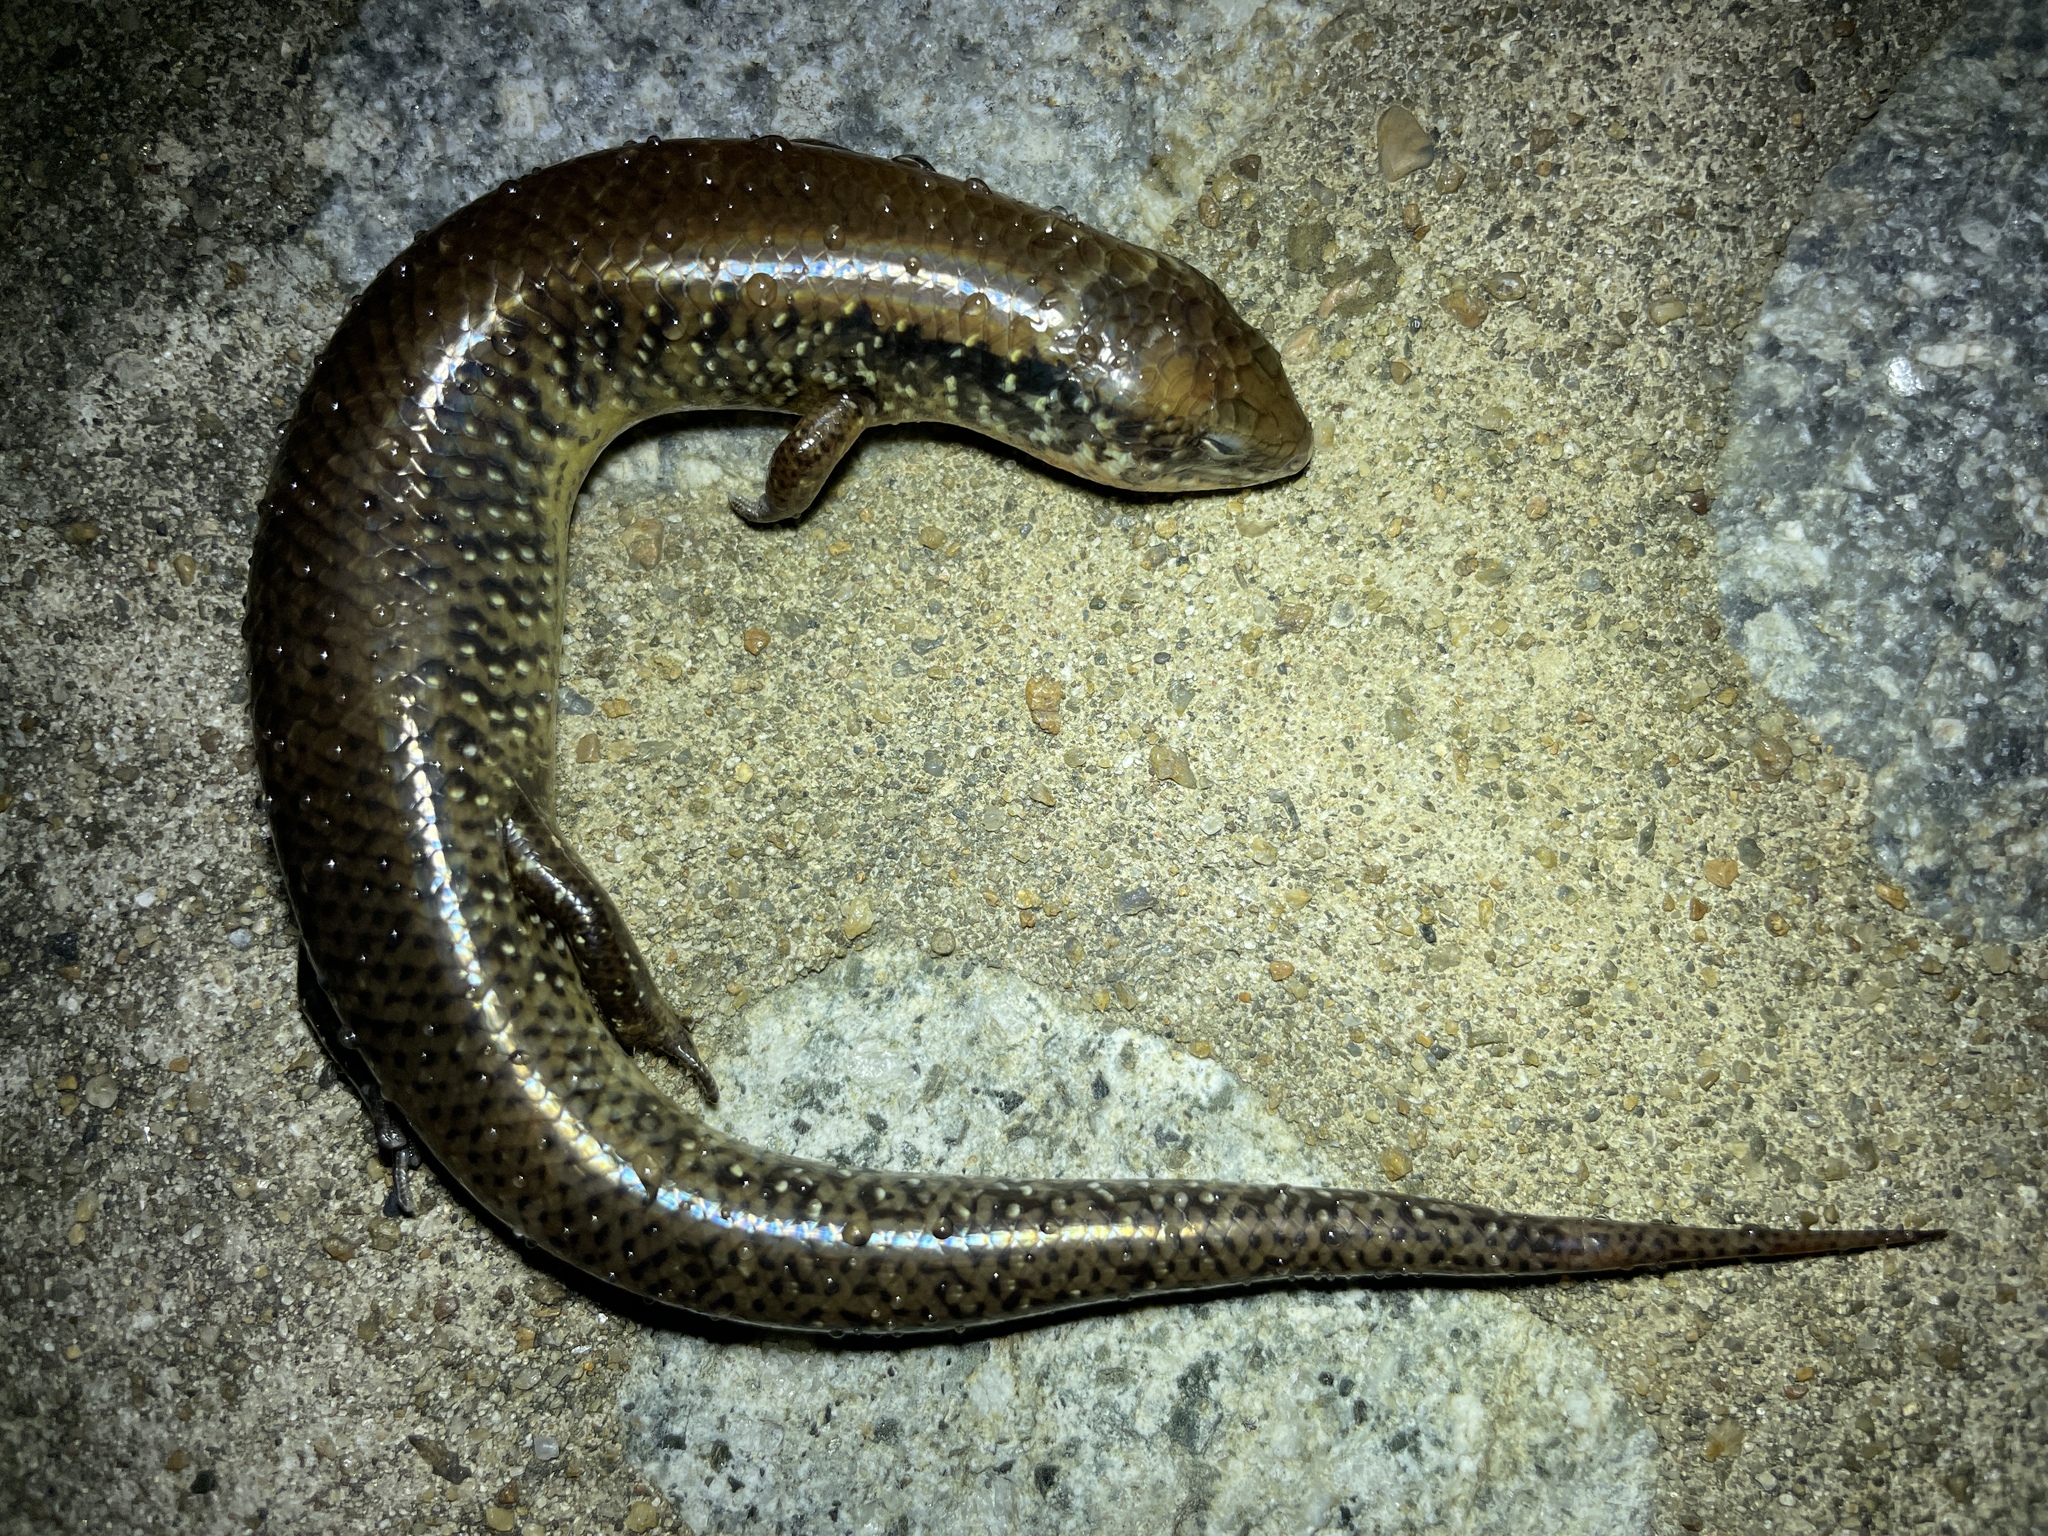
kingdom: Animalia
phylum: Chordata
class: Squamata
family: Scincidae
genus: Ateuchosaurus
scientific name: Ateuchosaurus chinensis
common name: Chinese ateuchosaurus
